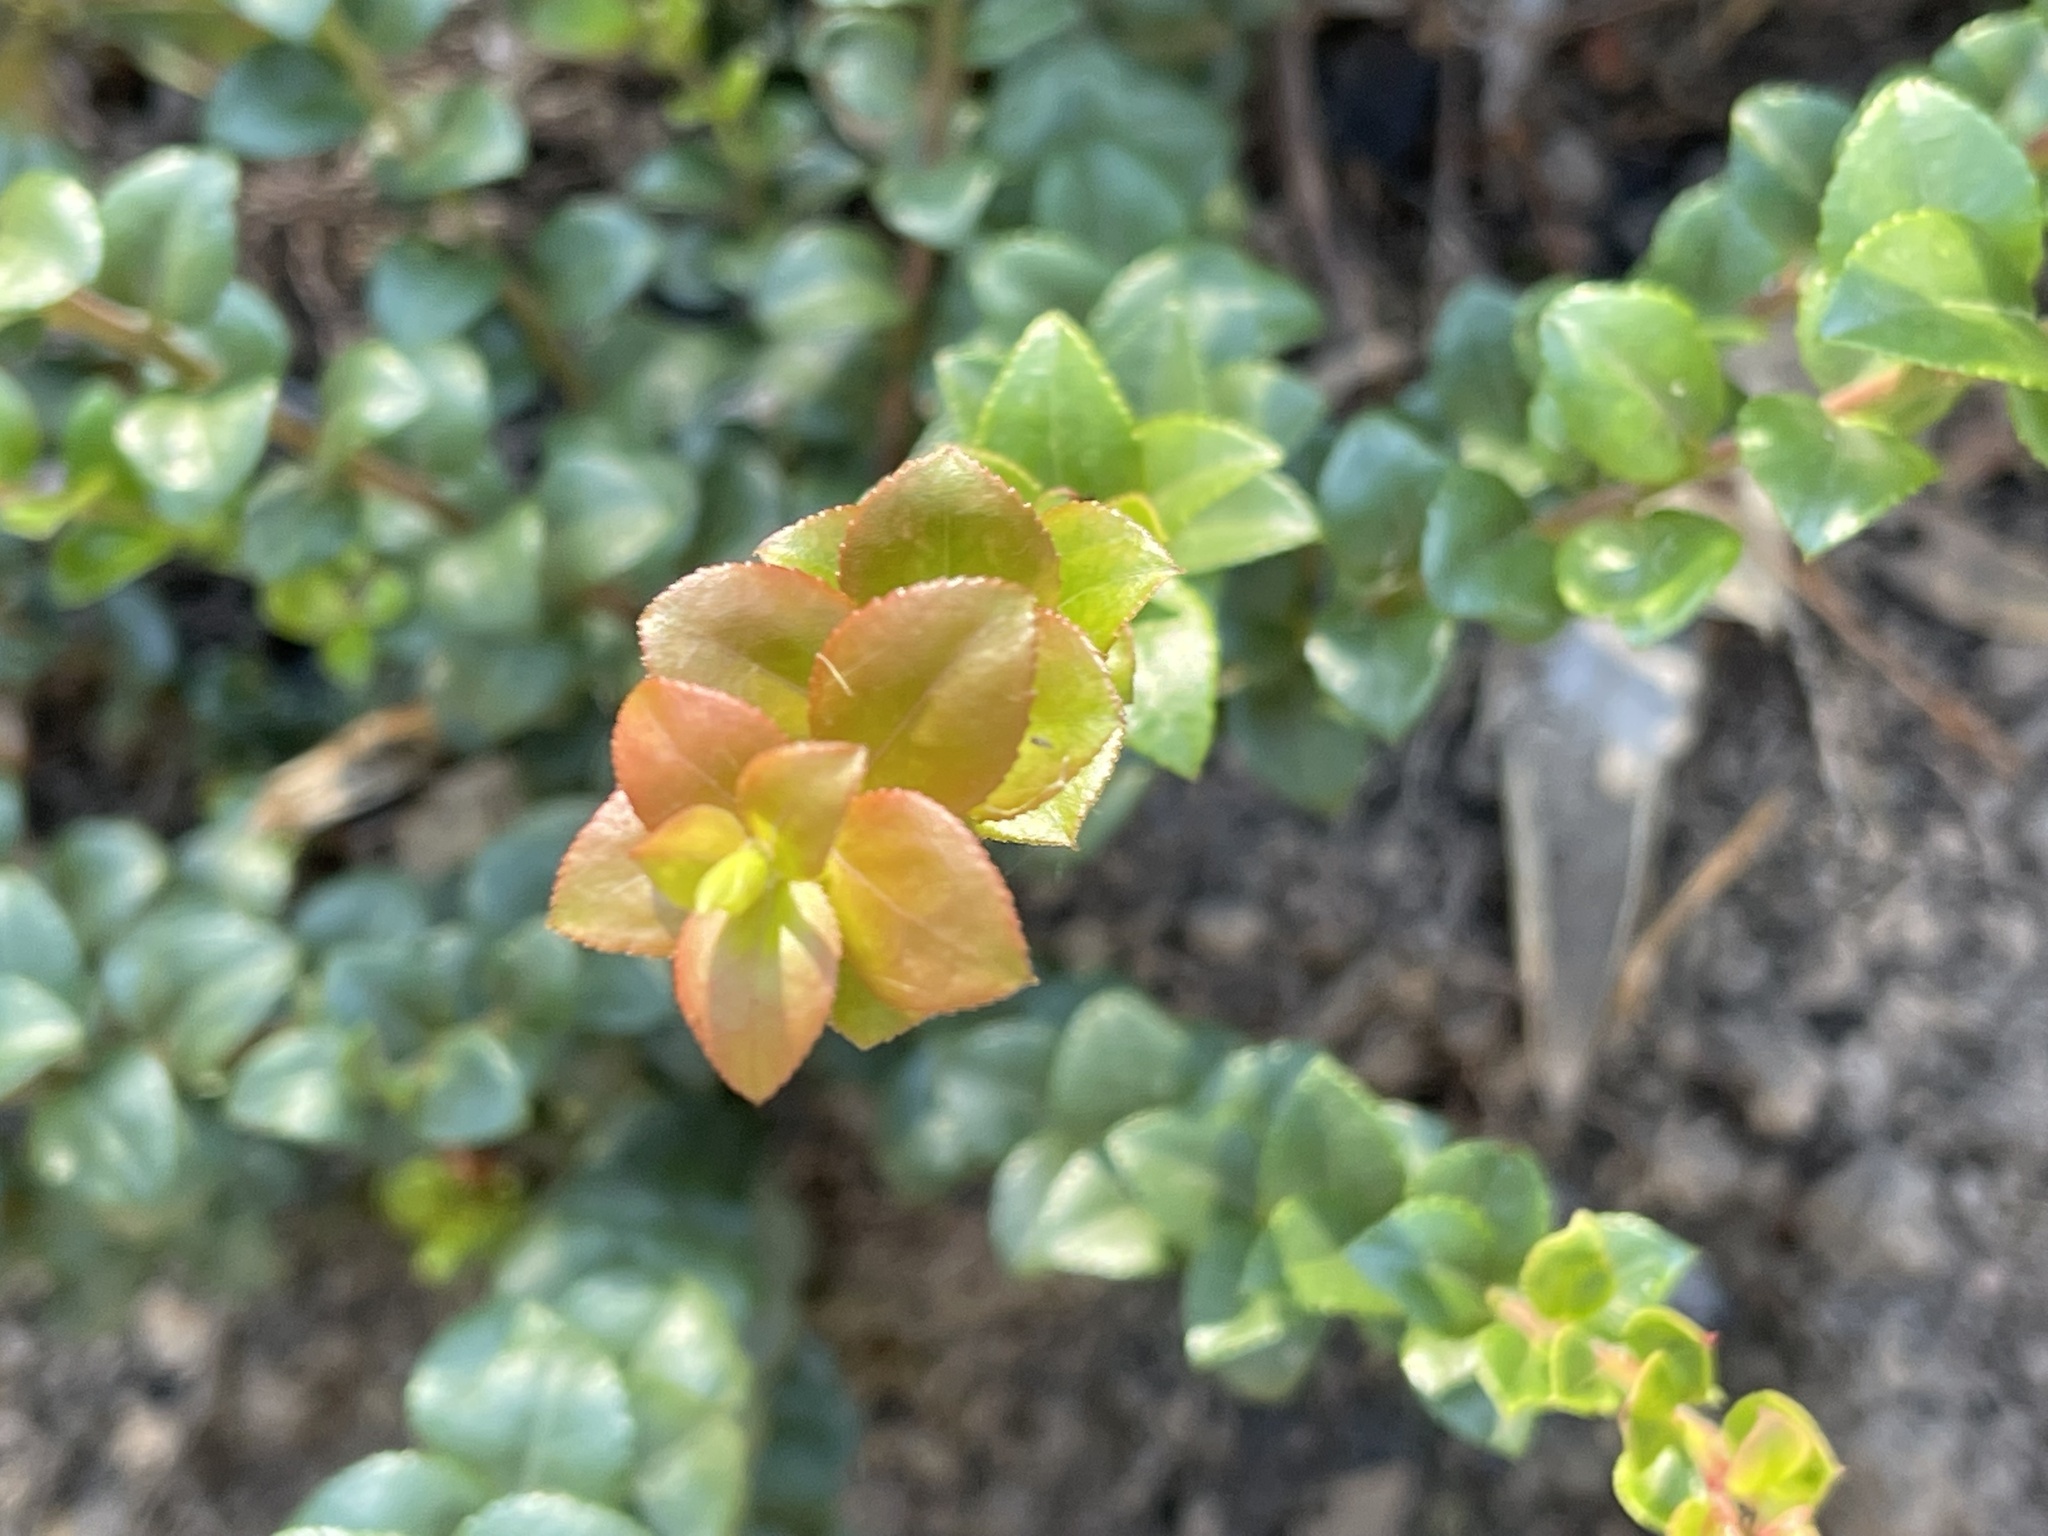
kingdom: Plantae
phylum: Tracheophyta
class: Magnoliopsida
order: Ericales
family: Ericaceae
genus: Vaccinium
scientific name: Vaccinium ovatum
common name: California-huckleberry
